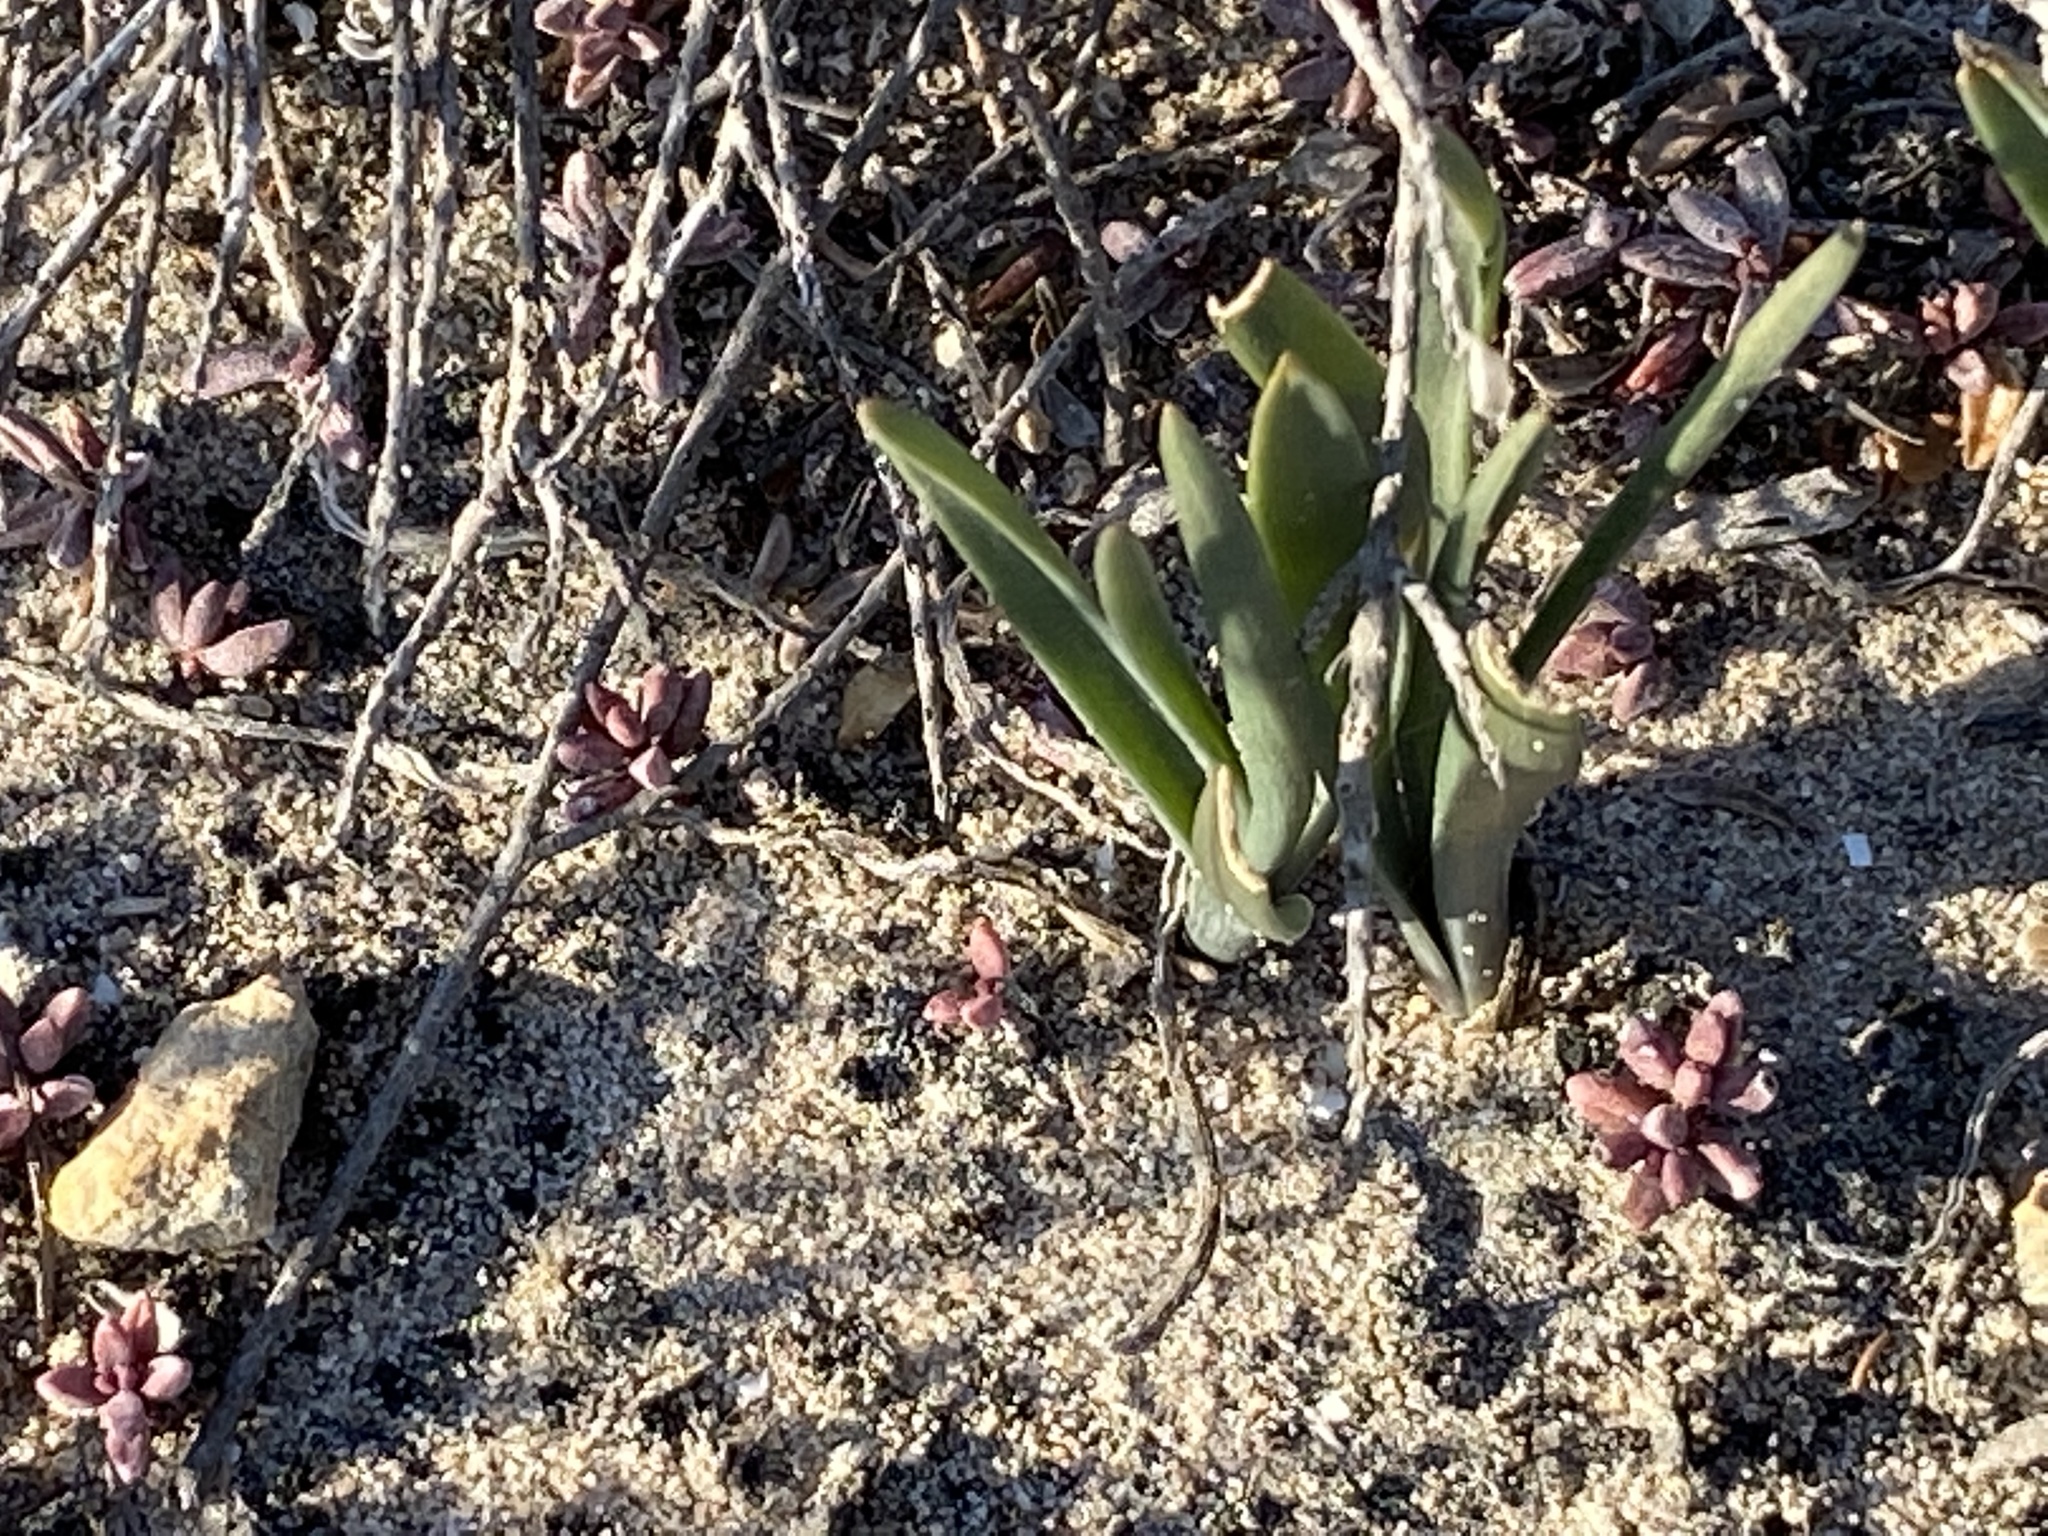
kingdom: Plantae
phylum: Tracheophyta
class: Liliopsida
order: Asparagales
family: Asparagaceae
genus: Fusifilum
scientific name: Fusifilum physodes
